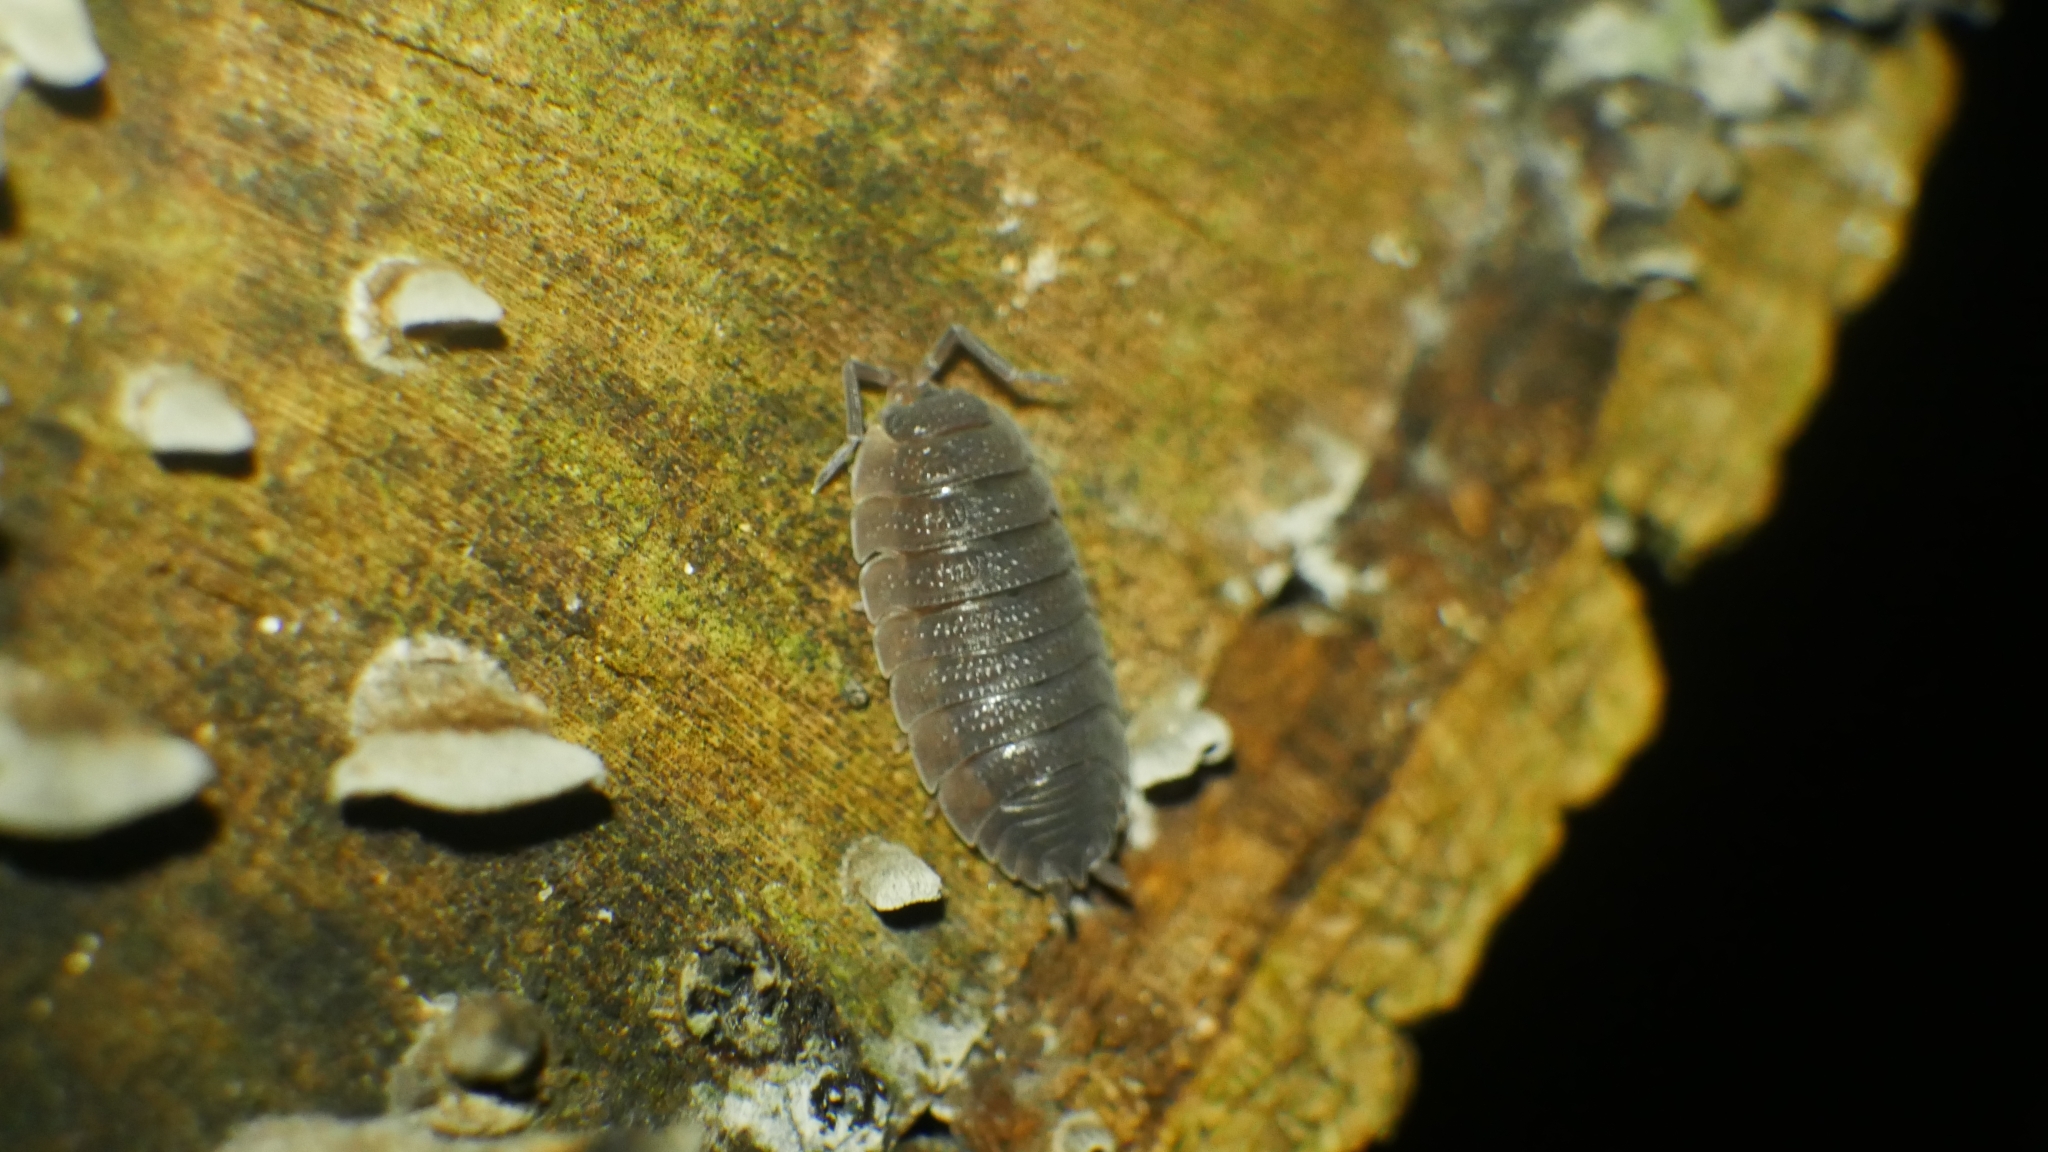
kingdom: Animalia
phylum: Arthropoda
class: Malacostraca
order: Isopoda
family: Porcellionidae
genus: Porcellio
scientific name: Porcellio scaber
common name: Common rough woodlouse
